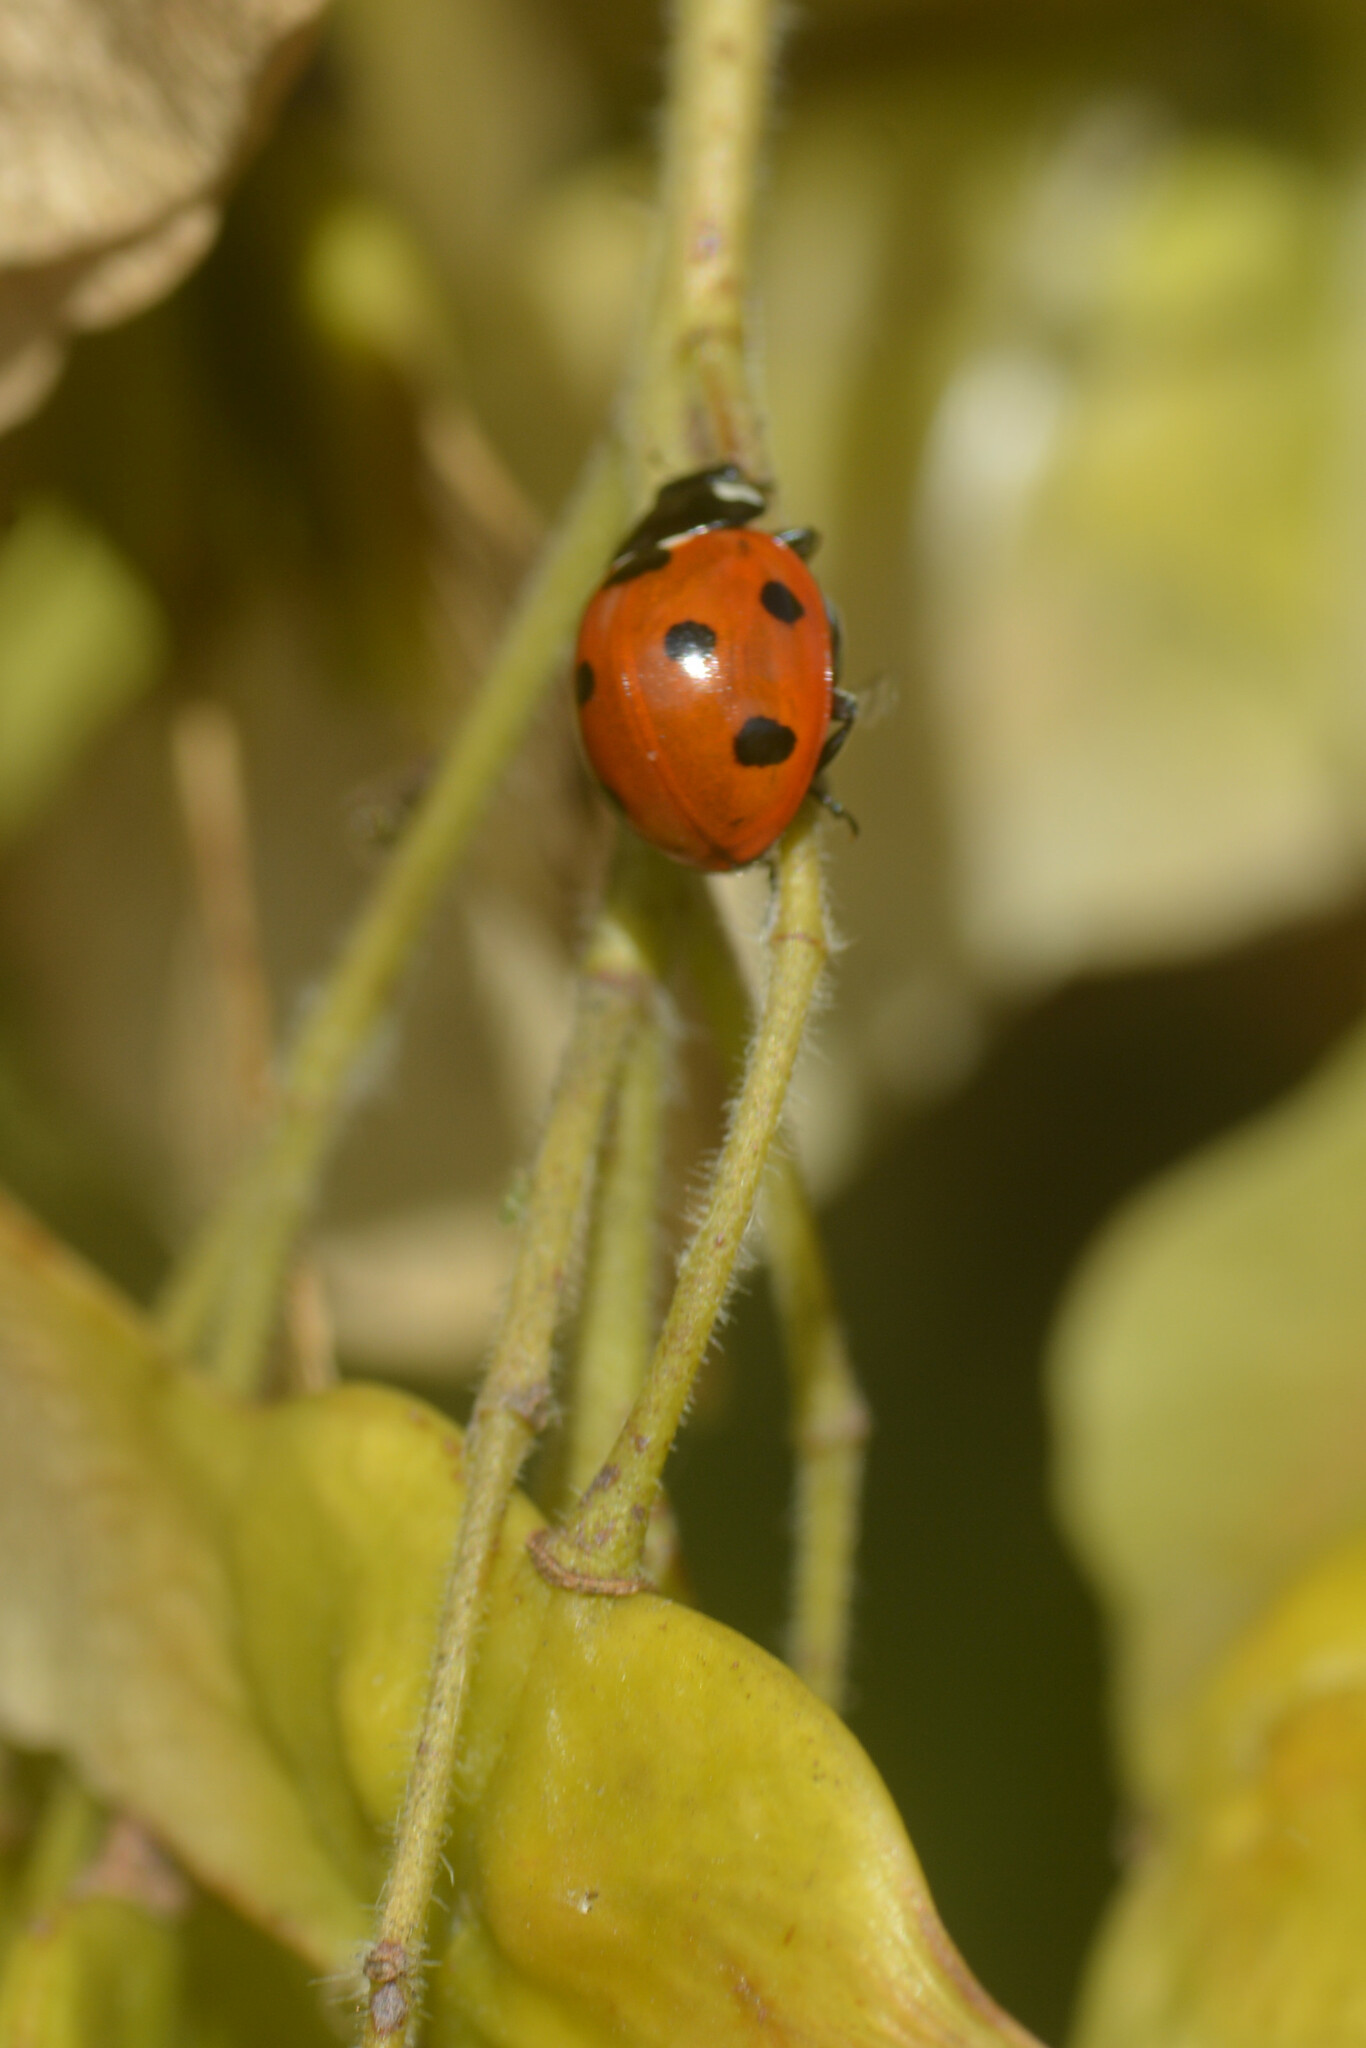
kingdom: Animalia
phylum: Arthropoda
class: Insecta
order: Coleoptera
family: Coccinellidae
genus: Coccinella
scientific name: Coccinella septempunctata
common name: Sevenspotted lady beetle
